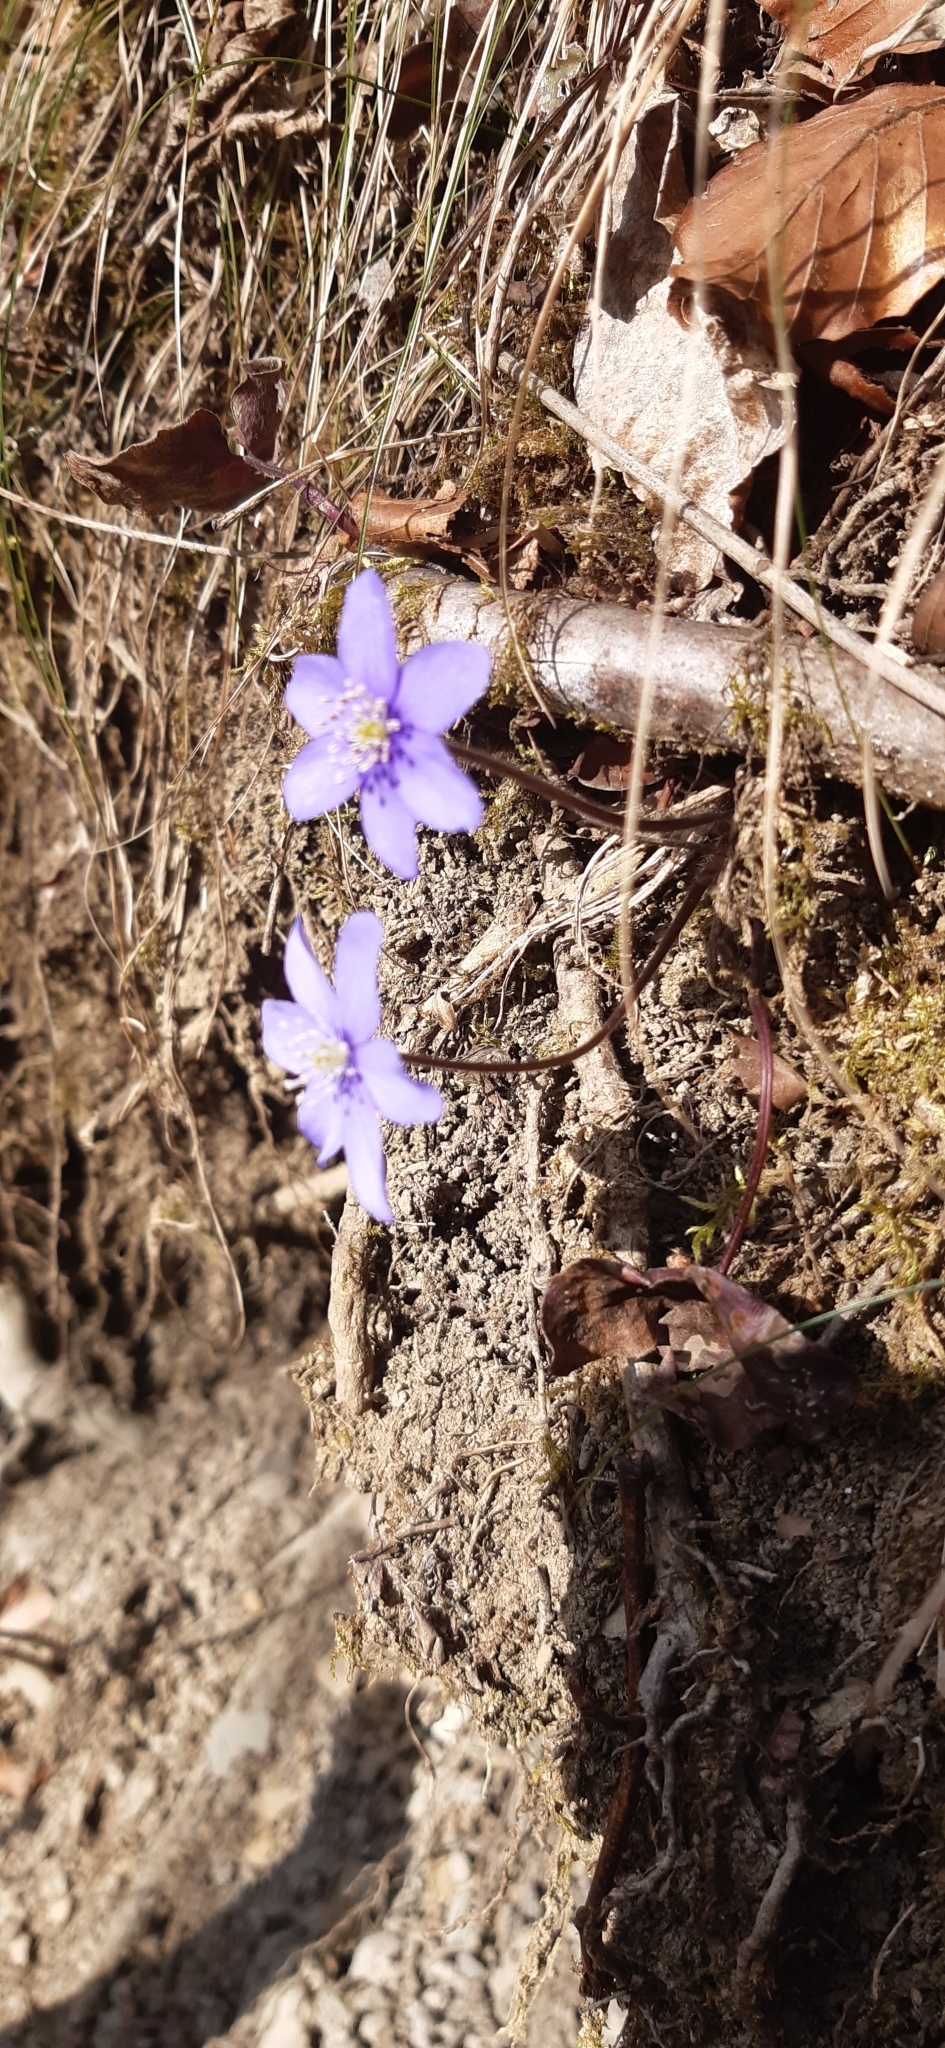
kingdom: Plantae
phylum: Tracheophyta
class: Magnoliopsida
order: Ranunculales
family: Ranunculaceae
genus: Hepatica
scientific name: Hepatica nobilis
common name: Liverleaf
